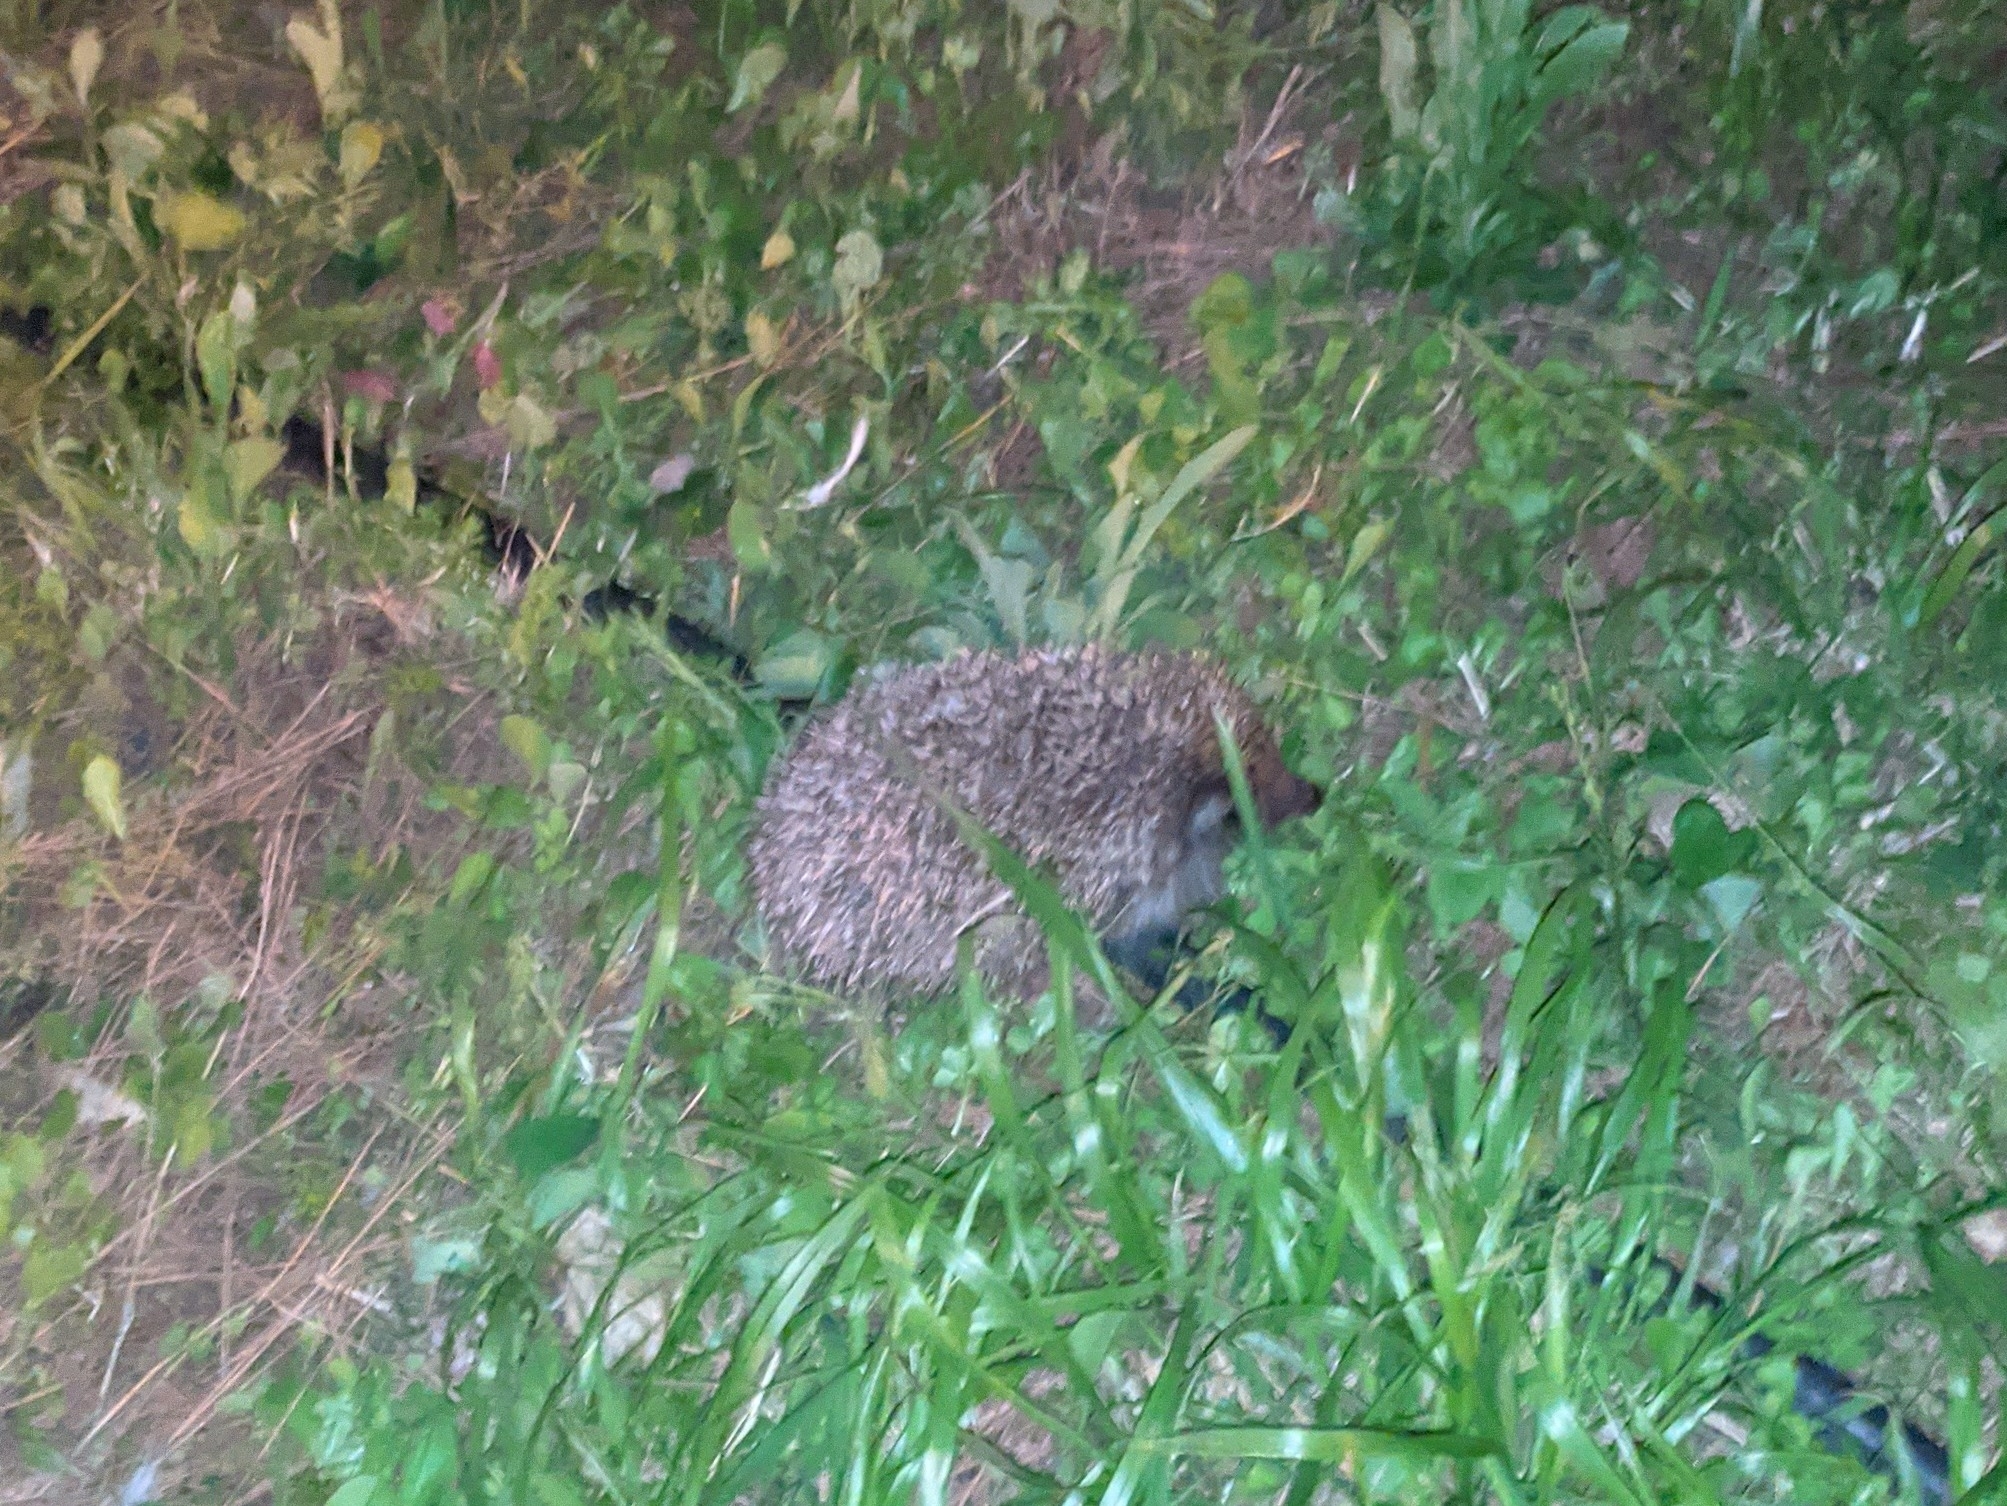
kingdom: Animalia
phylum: Chordata
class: Mammalia
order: Erinaceomorpha
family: Erinaceidae
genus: Erinaceus
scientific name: Erinaceus roumanicus
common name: Northern white-breasted hedgehog
